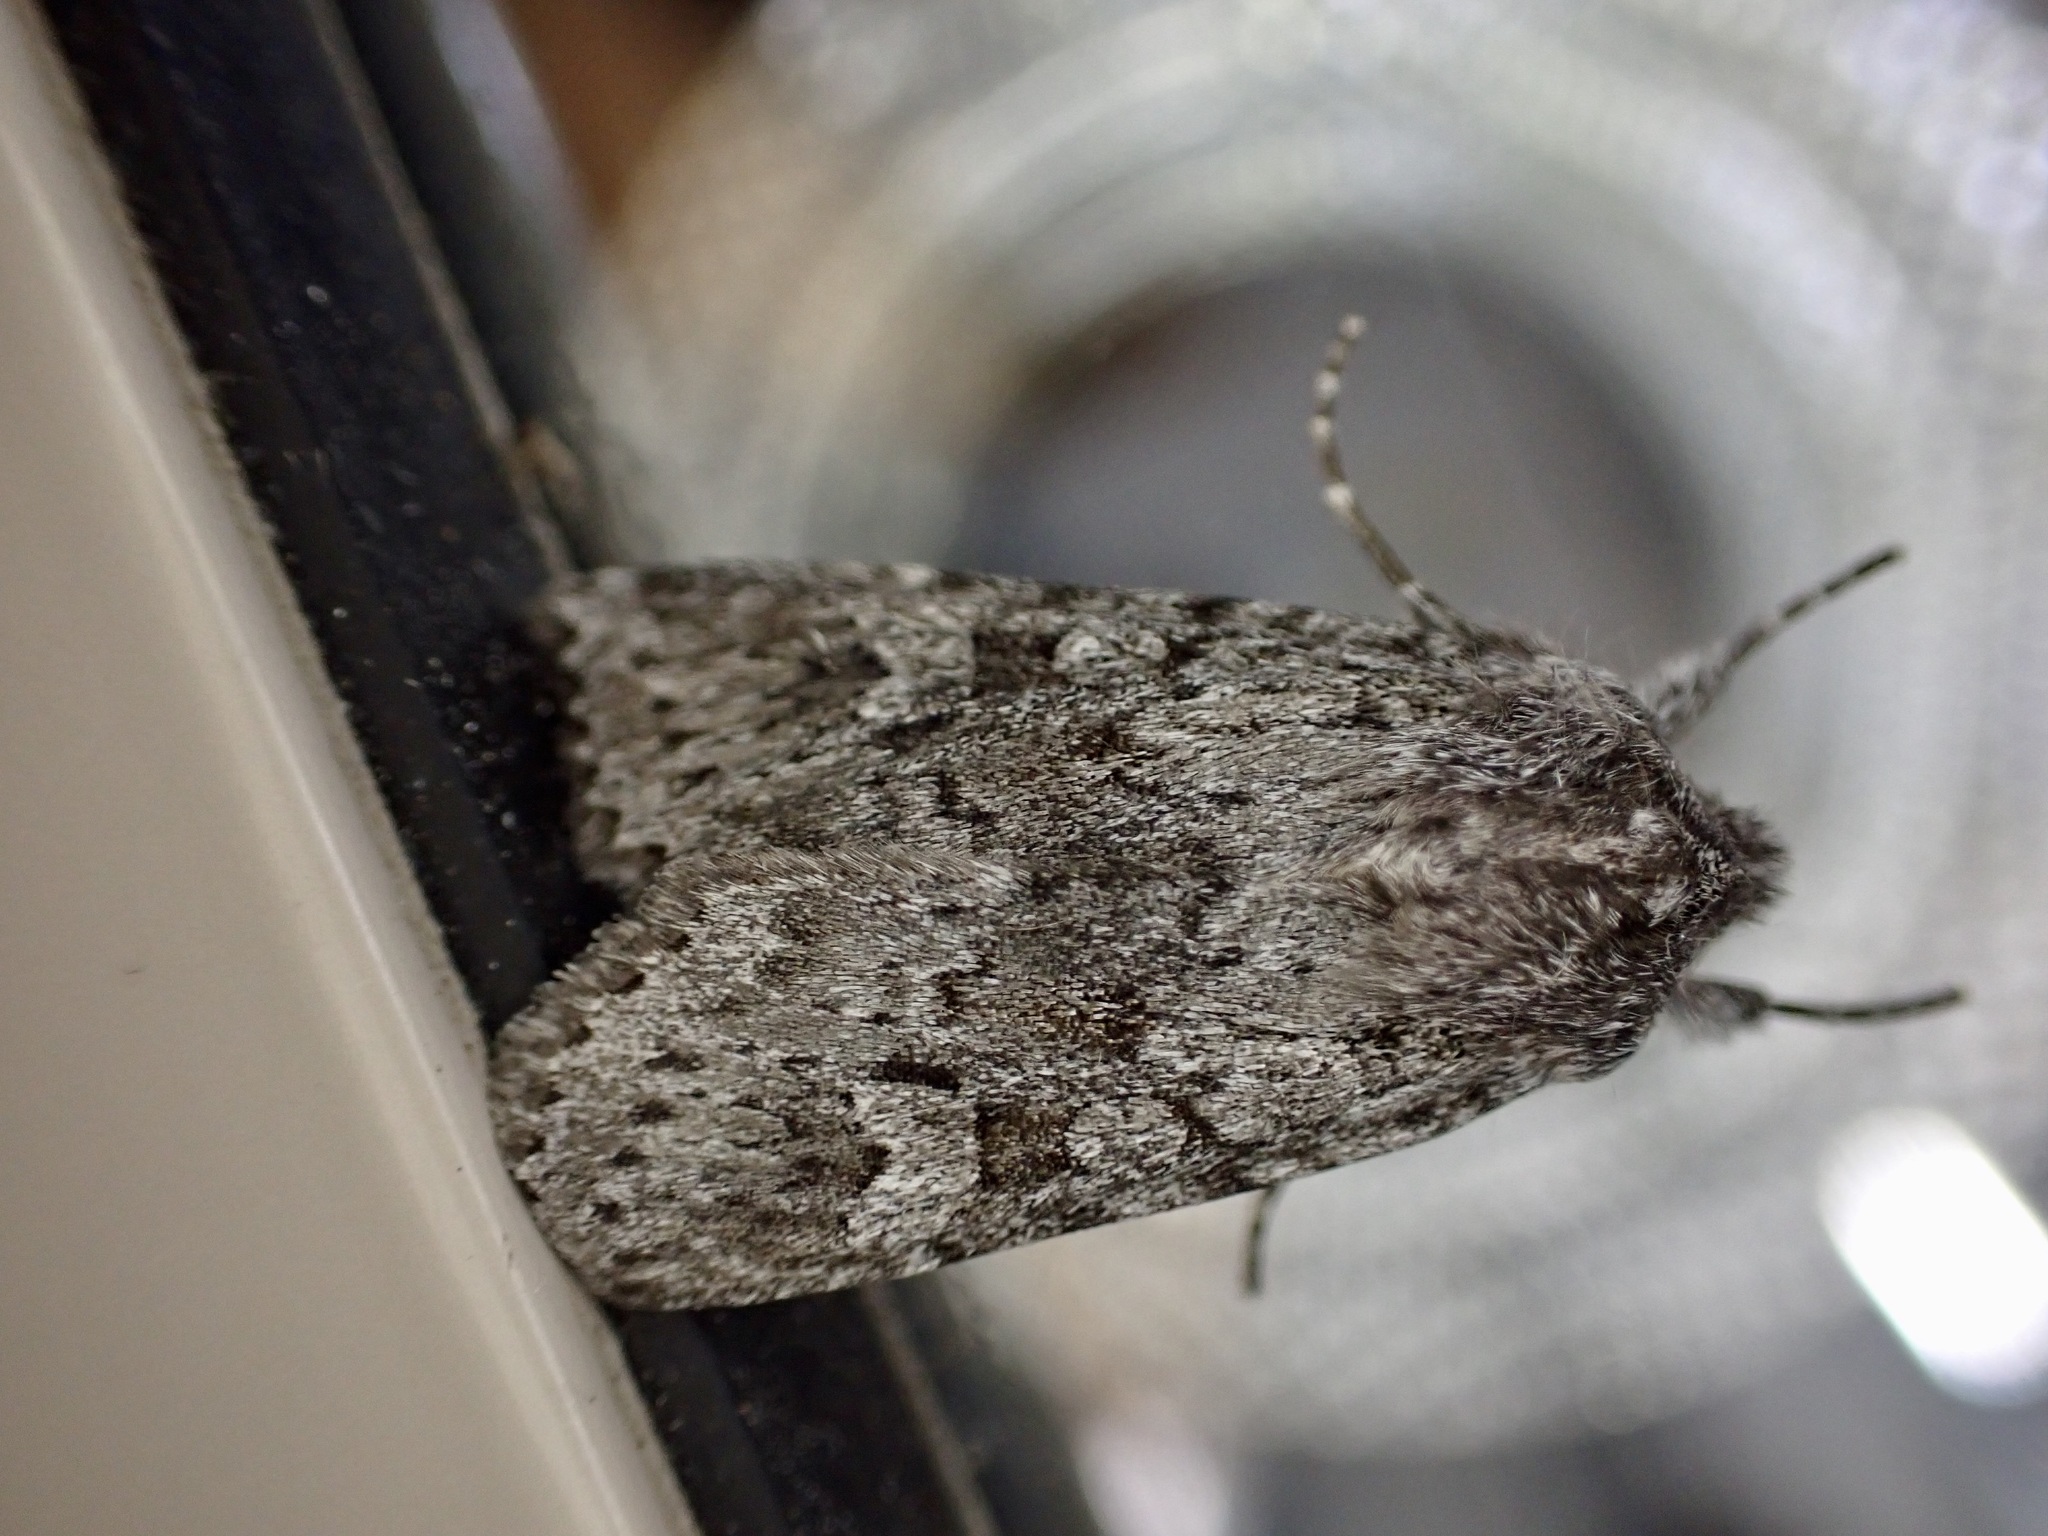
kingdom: Animalia
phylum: Arthropoda
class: Insecta
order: Lepidoptera
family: Noctuidae
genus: Physetica
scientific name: Physetica phricias
